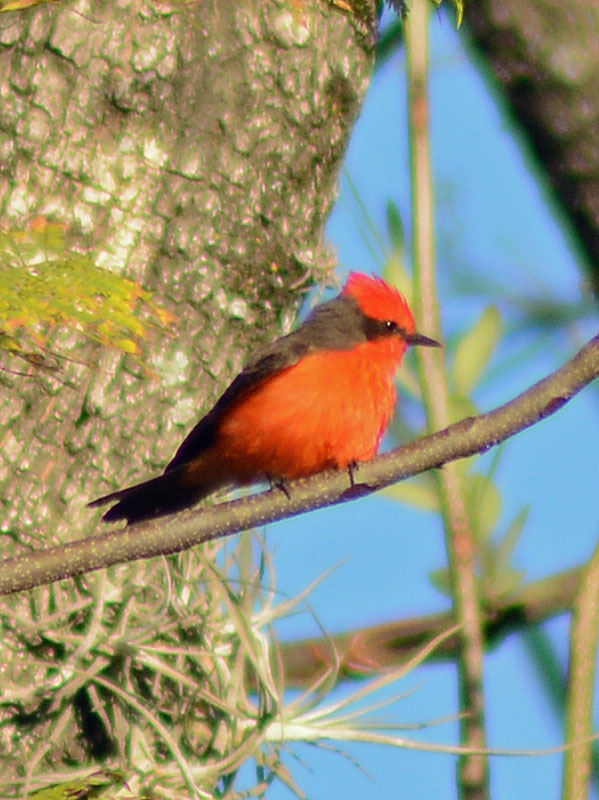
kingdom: Animalia
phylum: Chordata
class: Aves
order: Passeriformes
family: Tyrannidae
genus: Pyrocephalus
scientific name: Pyrocephalus rubinus
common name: Vermilion flycatcher
